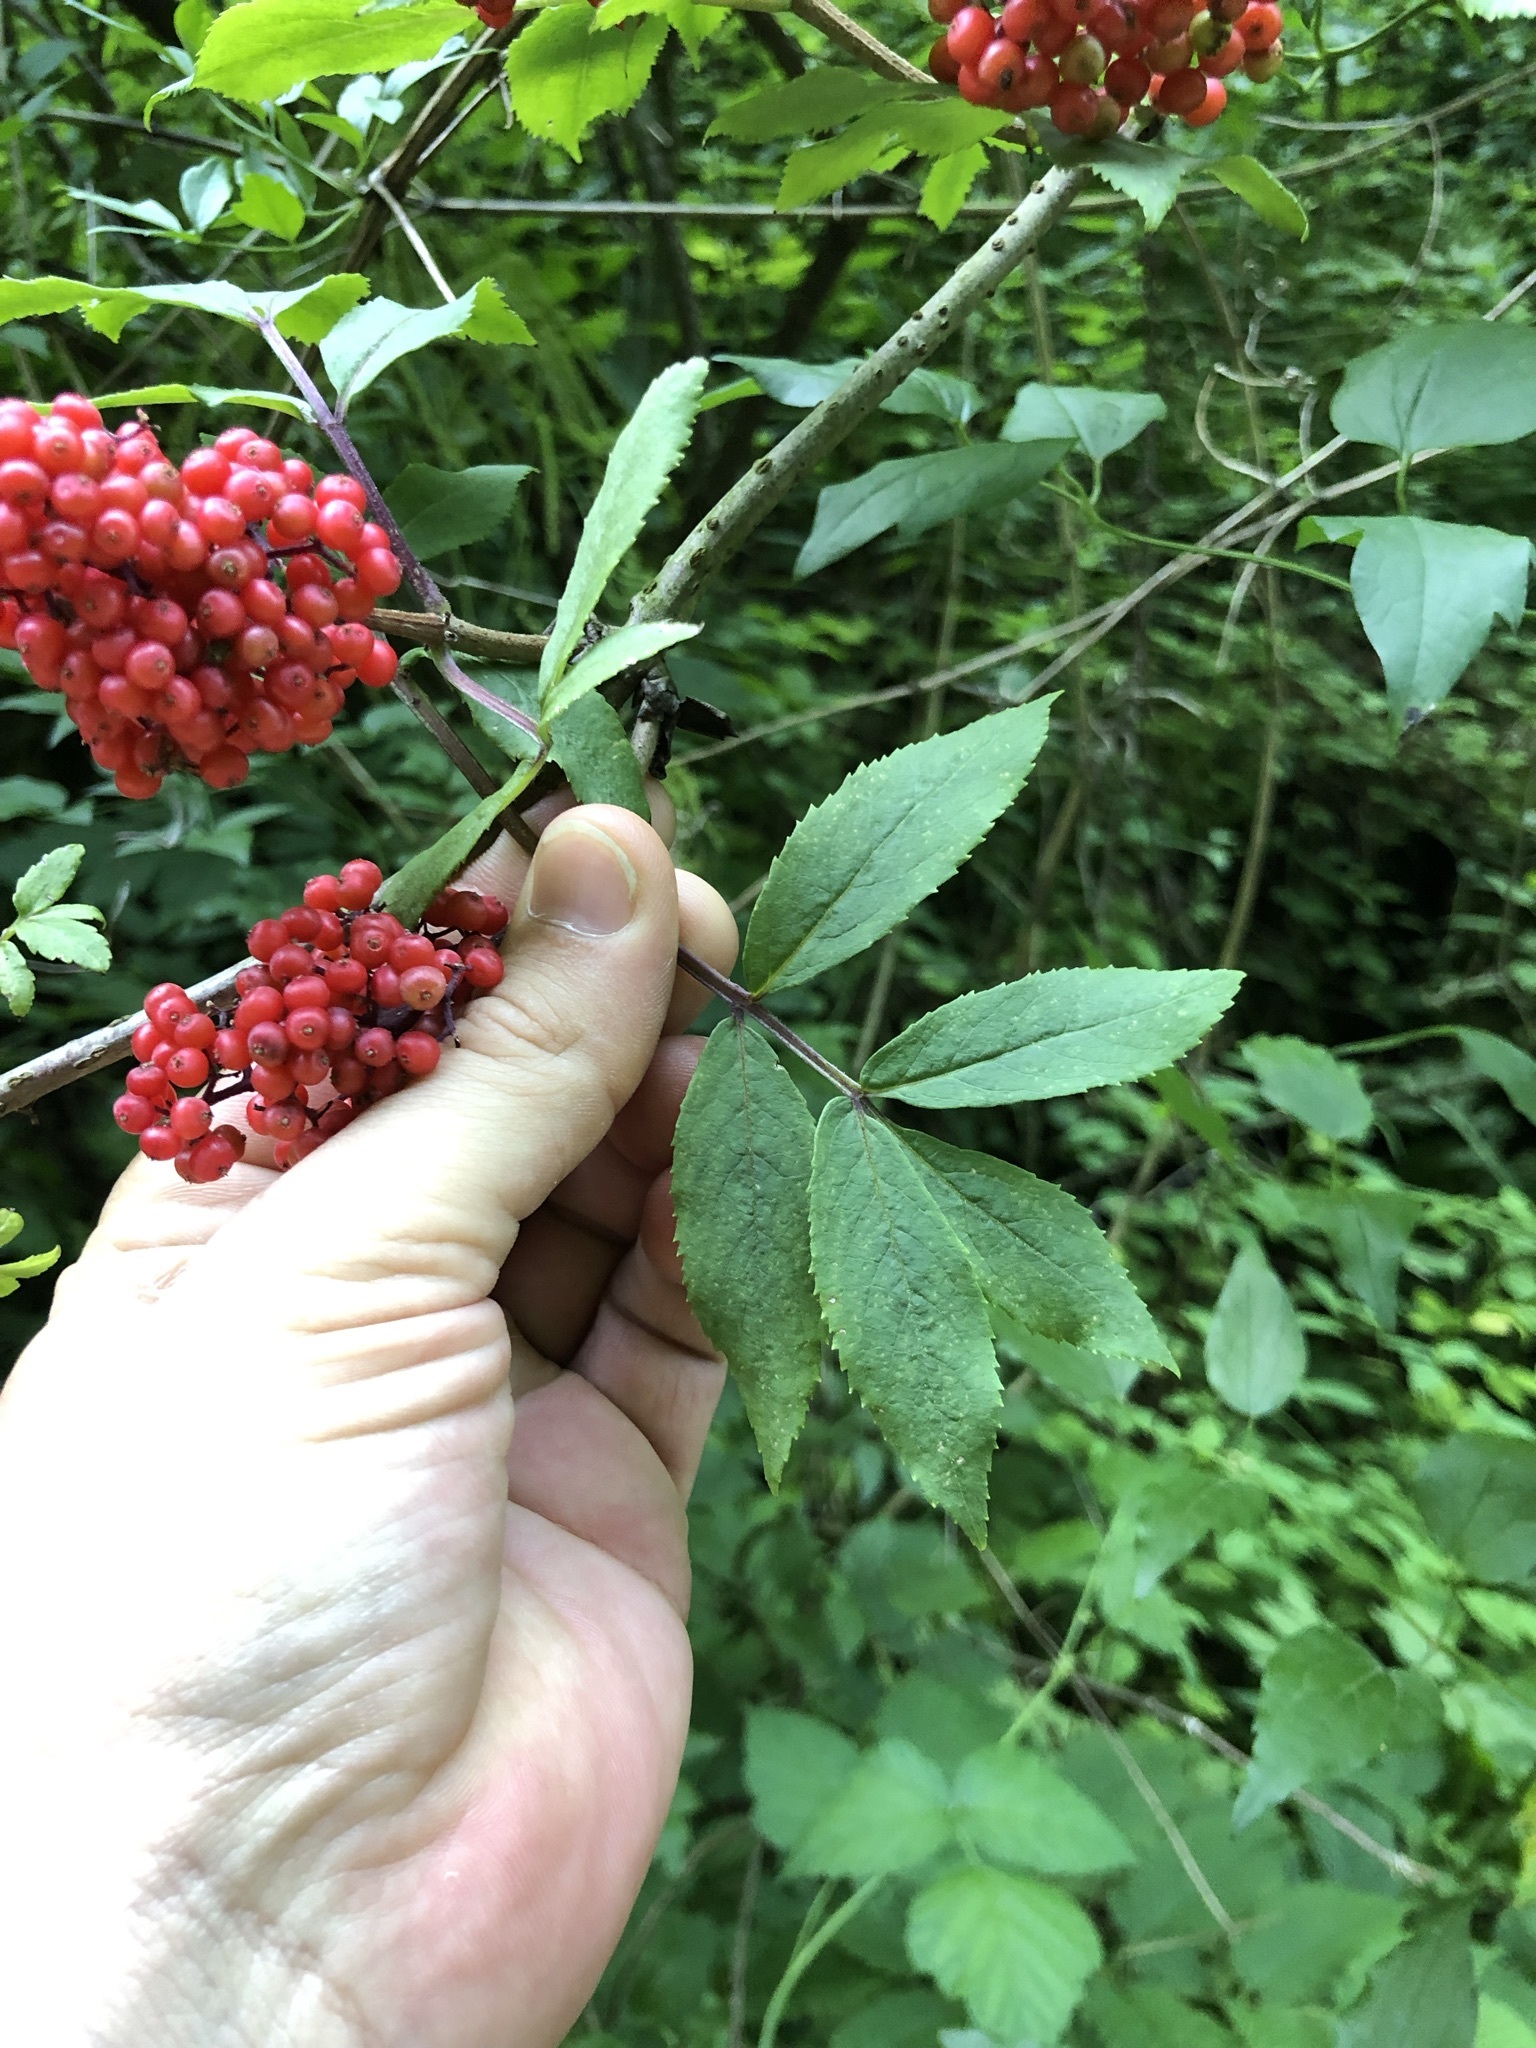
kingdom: Plantae
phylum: Tracheophyta
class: Magnoliopsida
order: Dipsacales
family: Viburnaceae
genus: Sambucus
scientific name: Sambucus racemosa
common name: Red-berried elder
